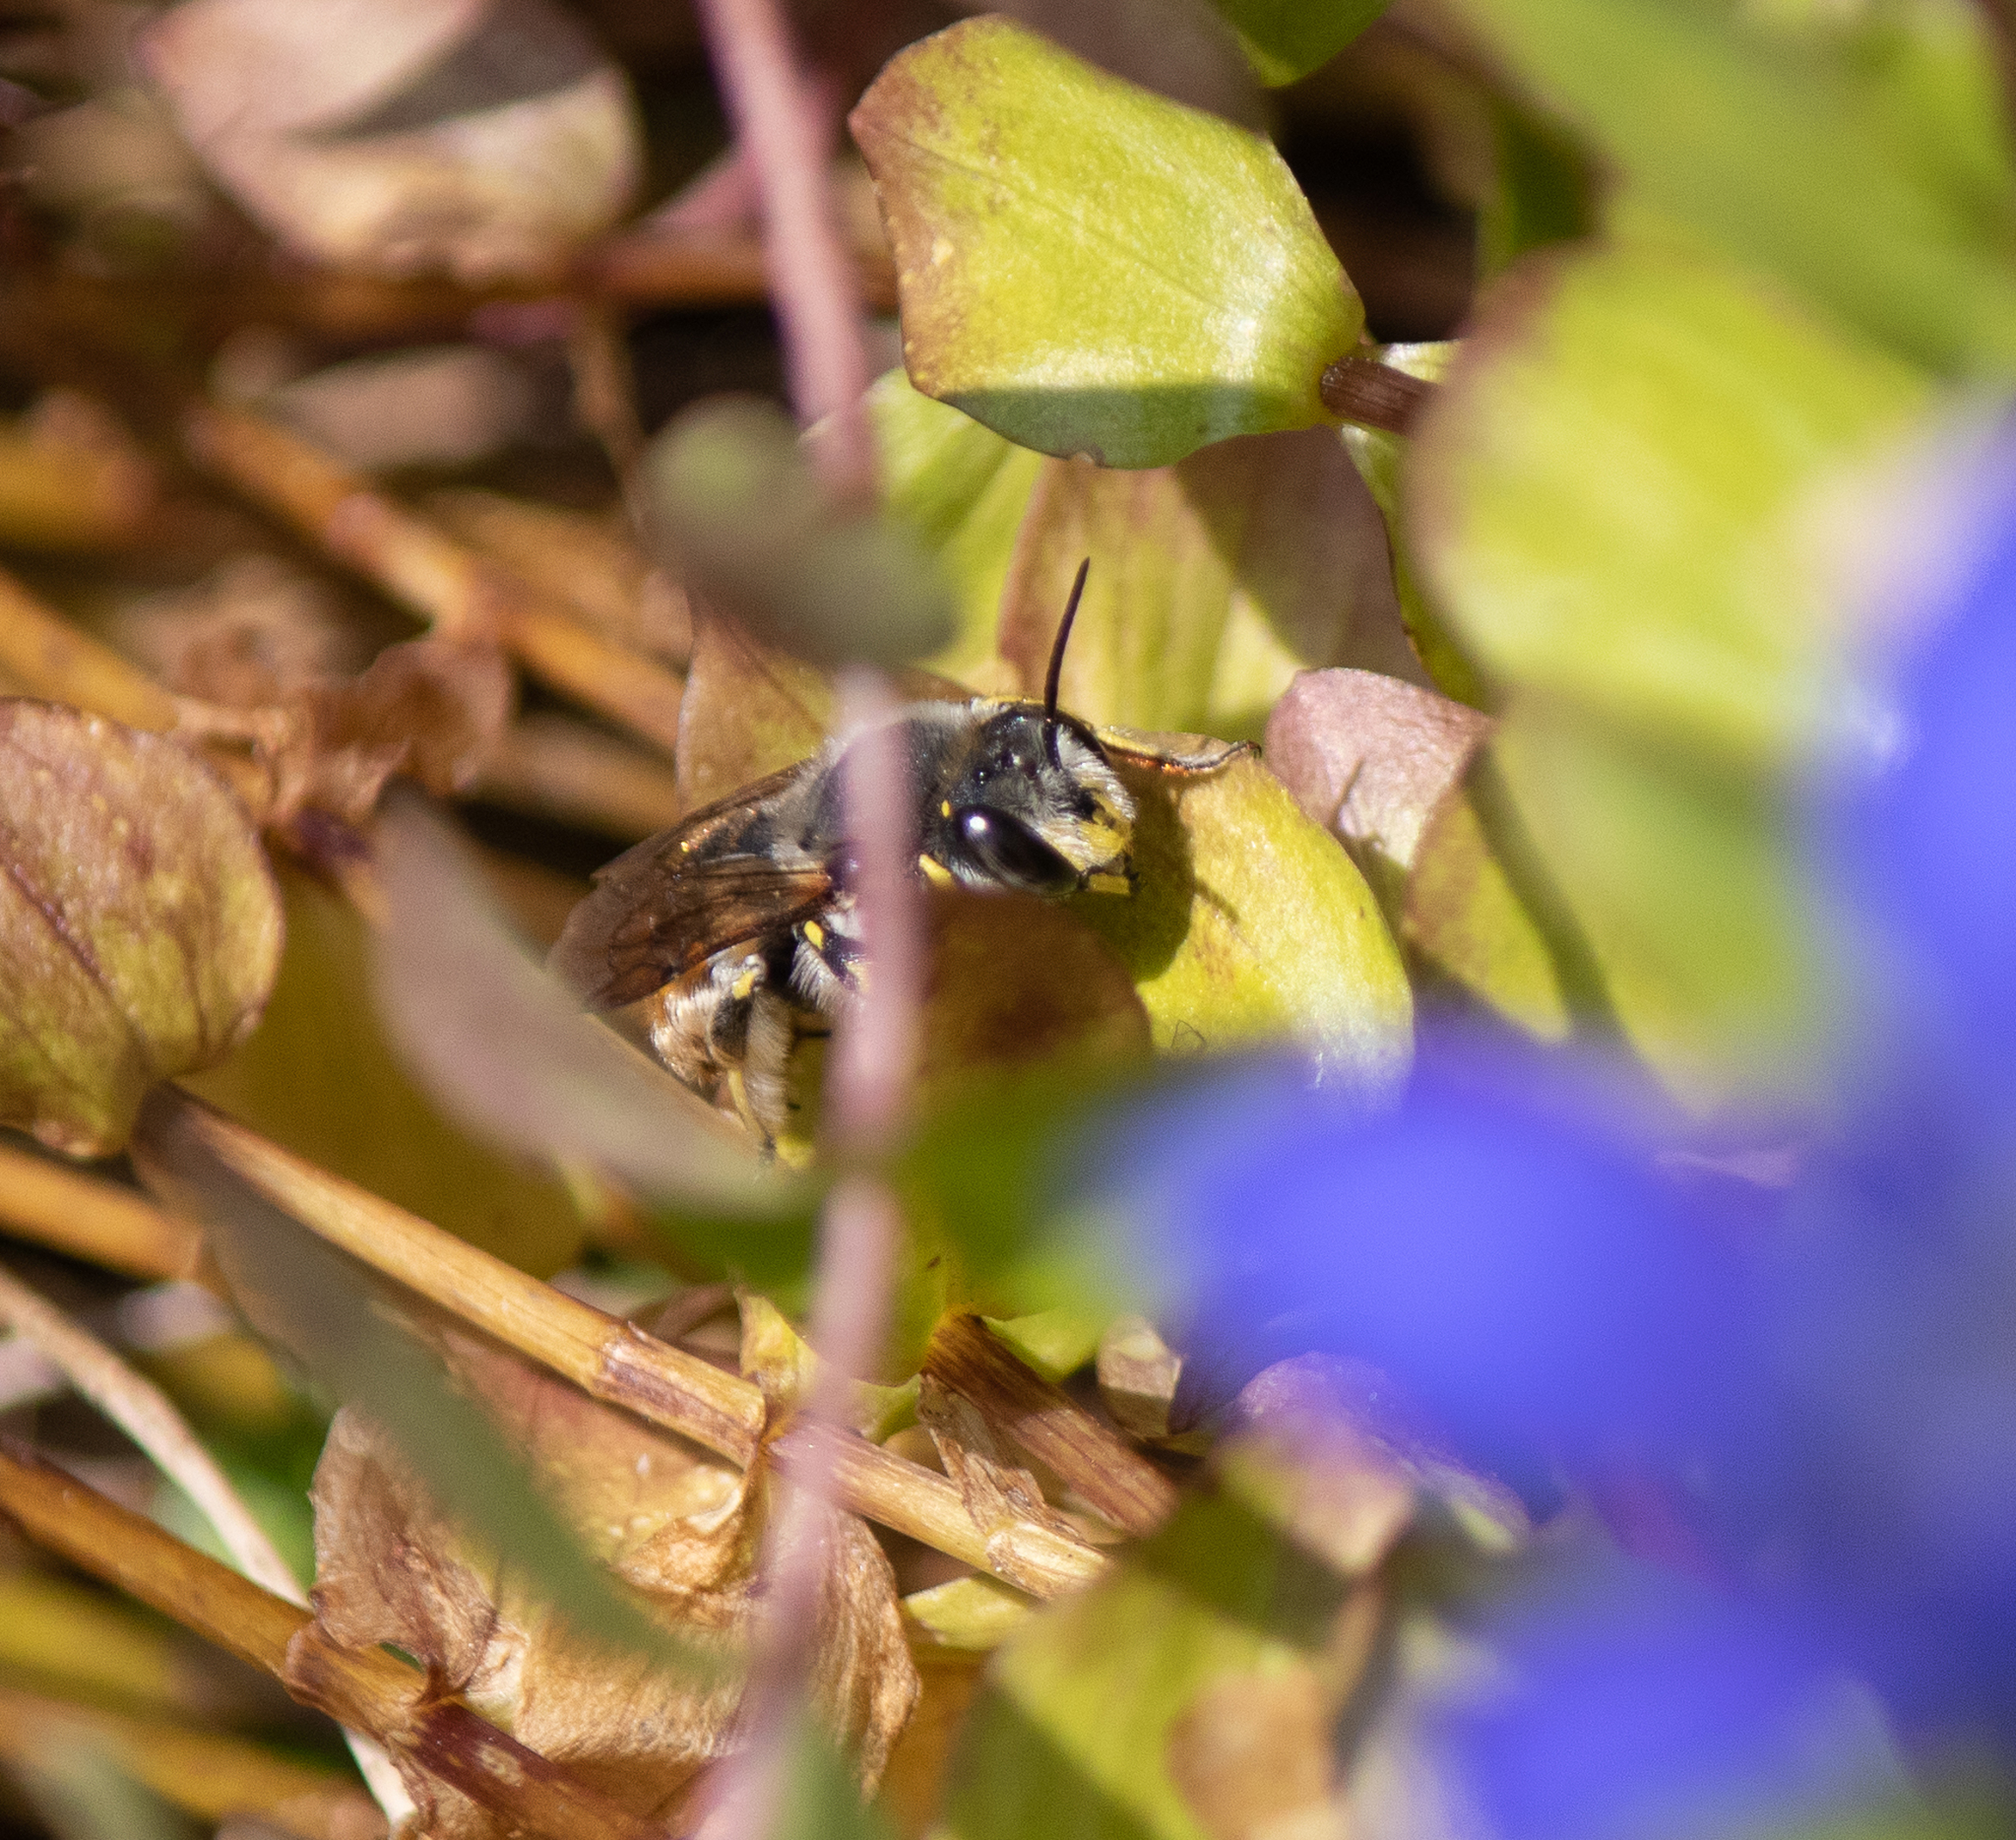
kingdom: Animalia
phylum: Arthropoda
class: Insecta
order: Hymenoptera
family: Megachilidae
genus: Anthidium
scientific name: Anthidium manicatum
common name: Wool carder bee
